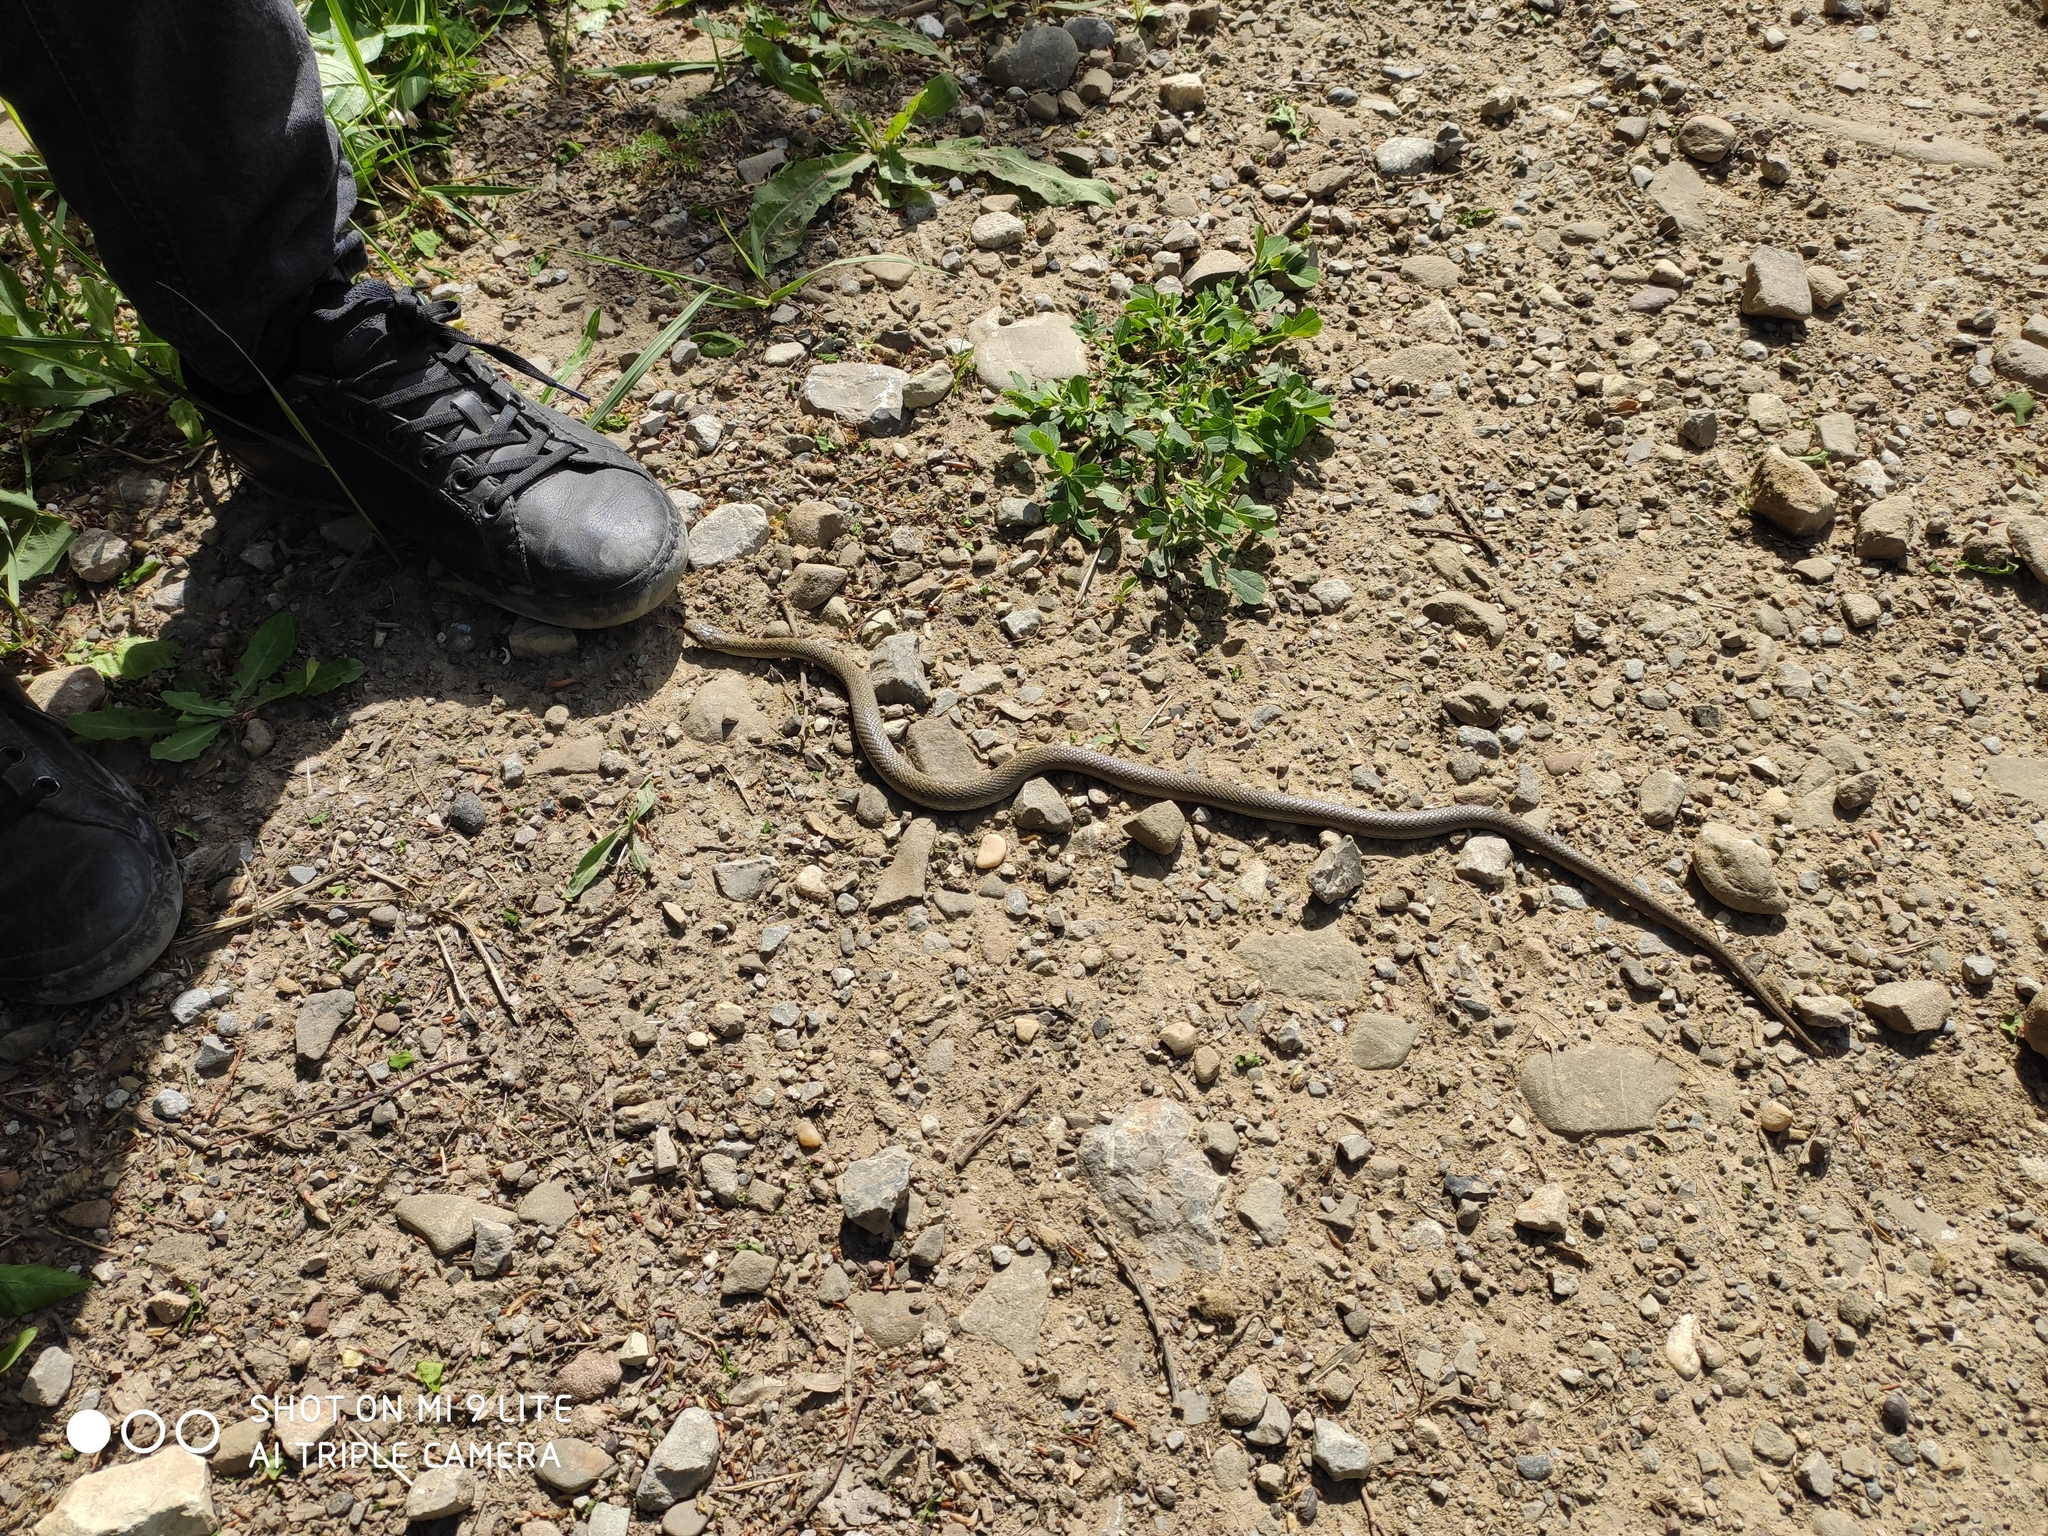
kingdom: Animalia
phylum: Chordata
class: Squamata
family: Colubridae
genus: Coronella
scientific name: Coronella austriaca
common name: Smooth snake
